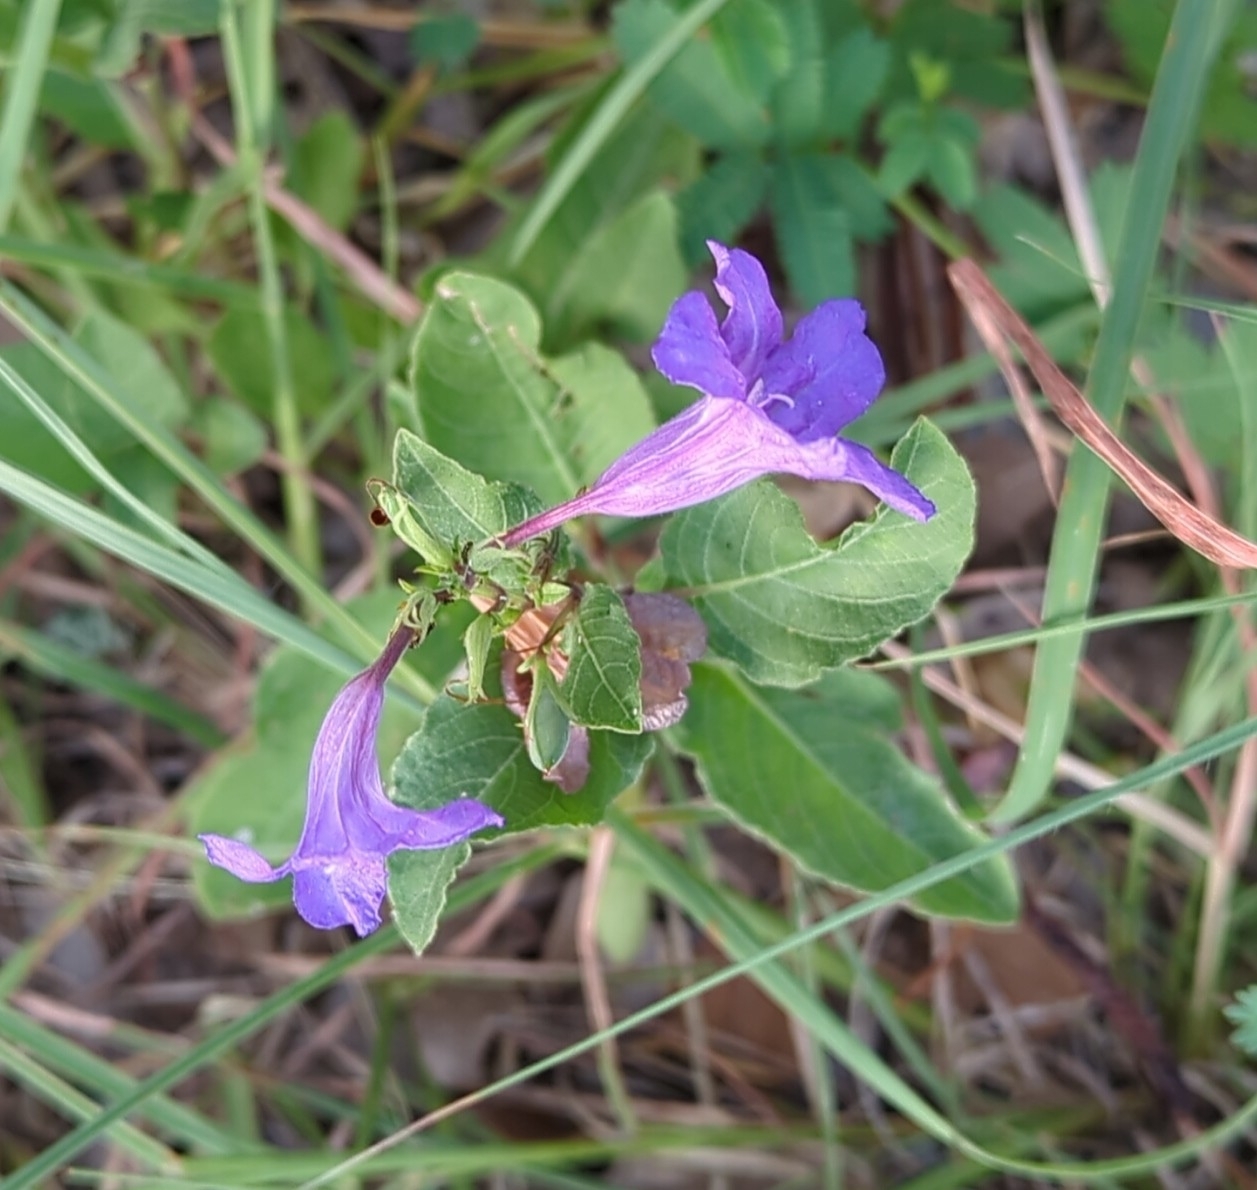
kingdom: Plantae
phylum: Tracheophyta
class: Magnoliopsida
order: Lamiales
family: Acanthaceae
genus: Ruellia
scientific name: Ruellia ciliatiflora
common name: Hairyflower wild petunia
